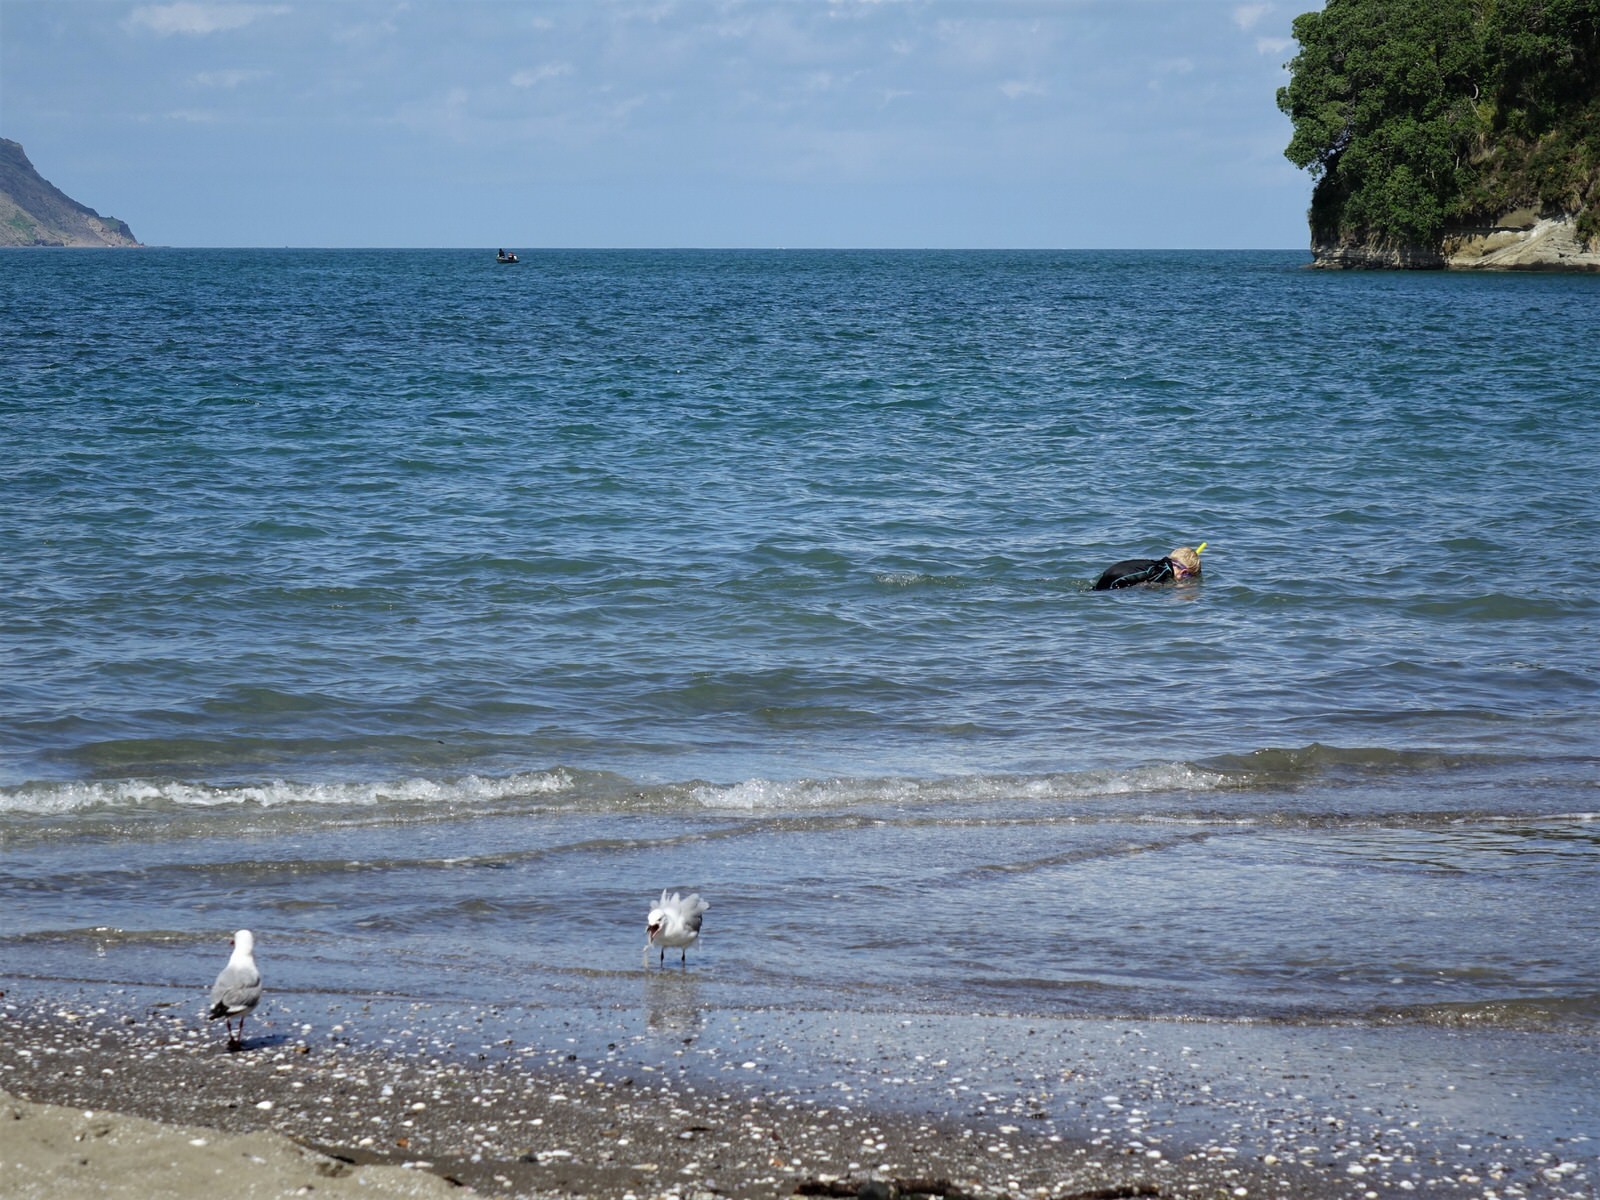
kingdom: Animalia
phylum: Chordata
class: Aves
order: Charadriiformes
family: Laridae
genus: Chroicocephalus
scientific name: Chroicocephalus novaehollandiae
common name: Silver gull
